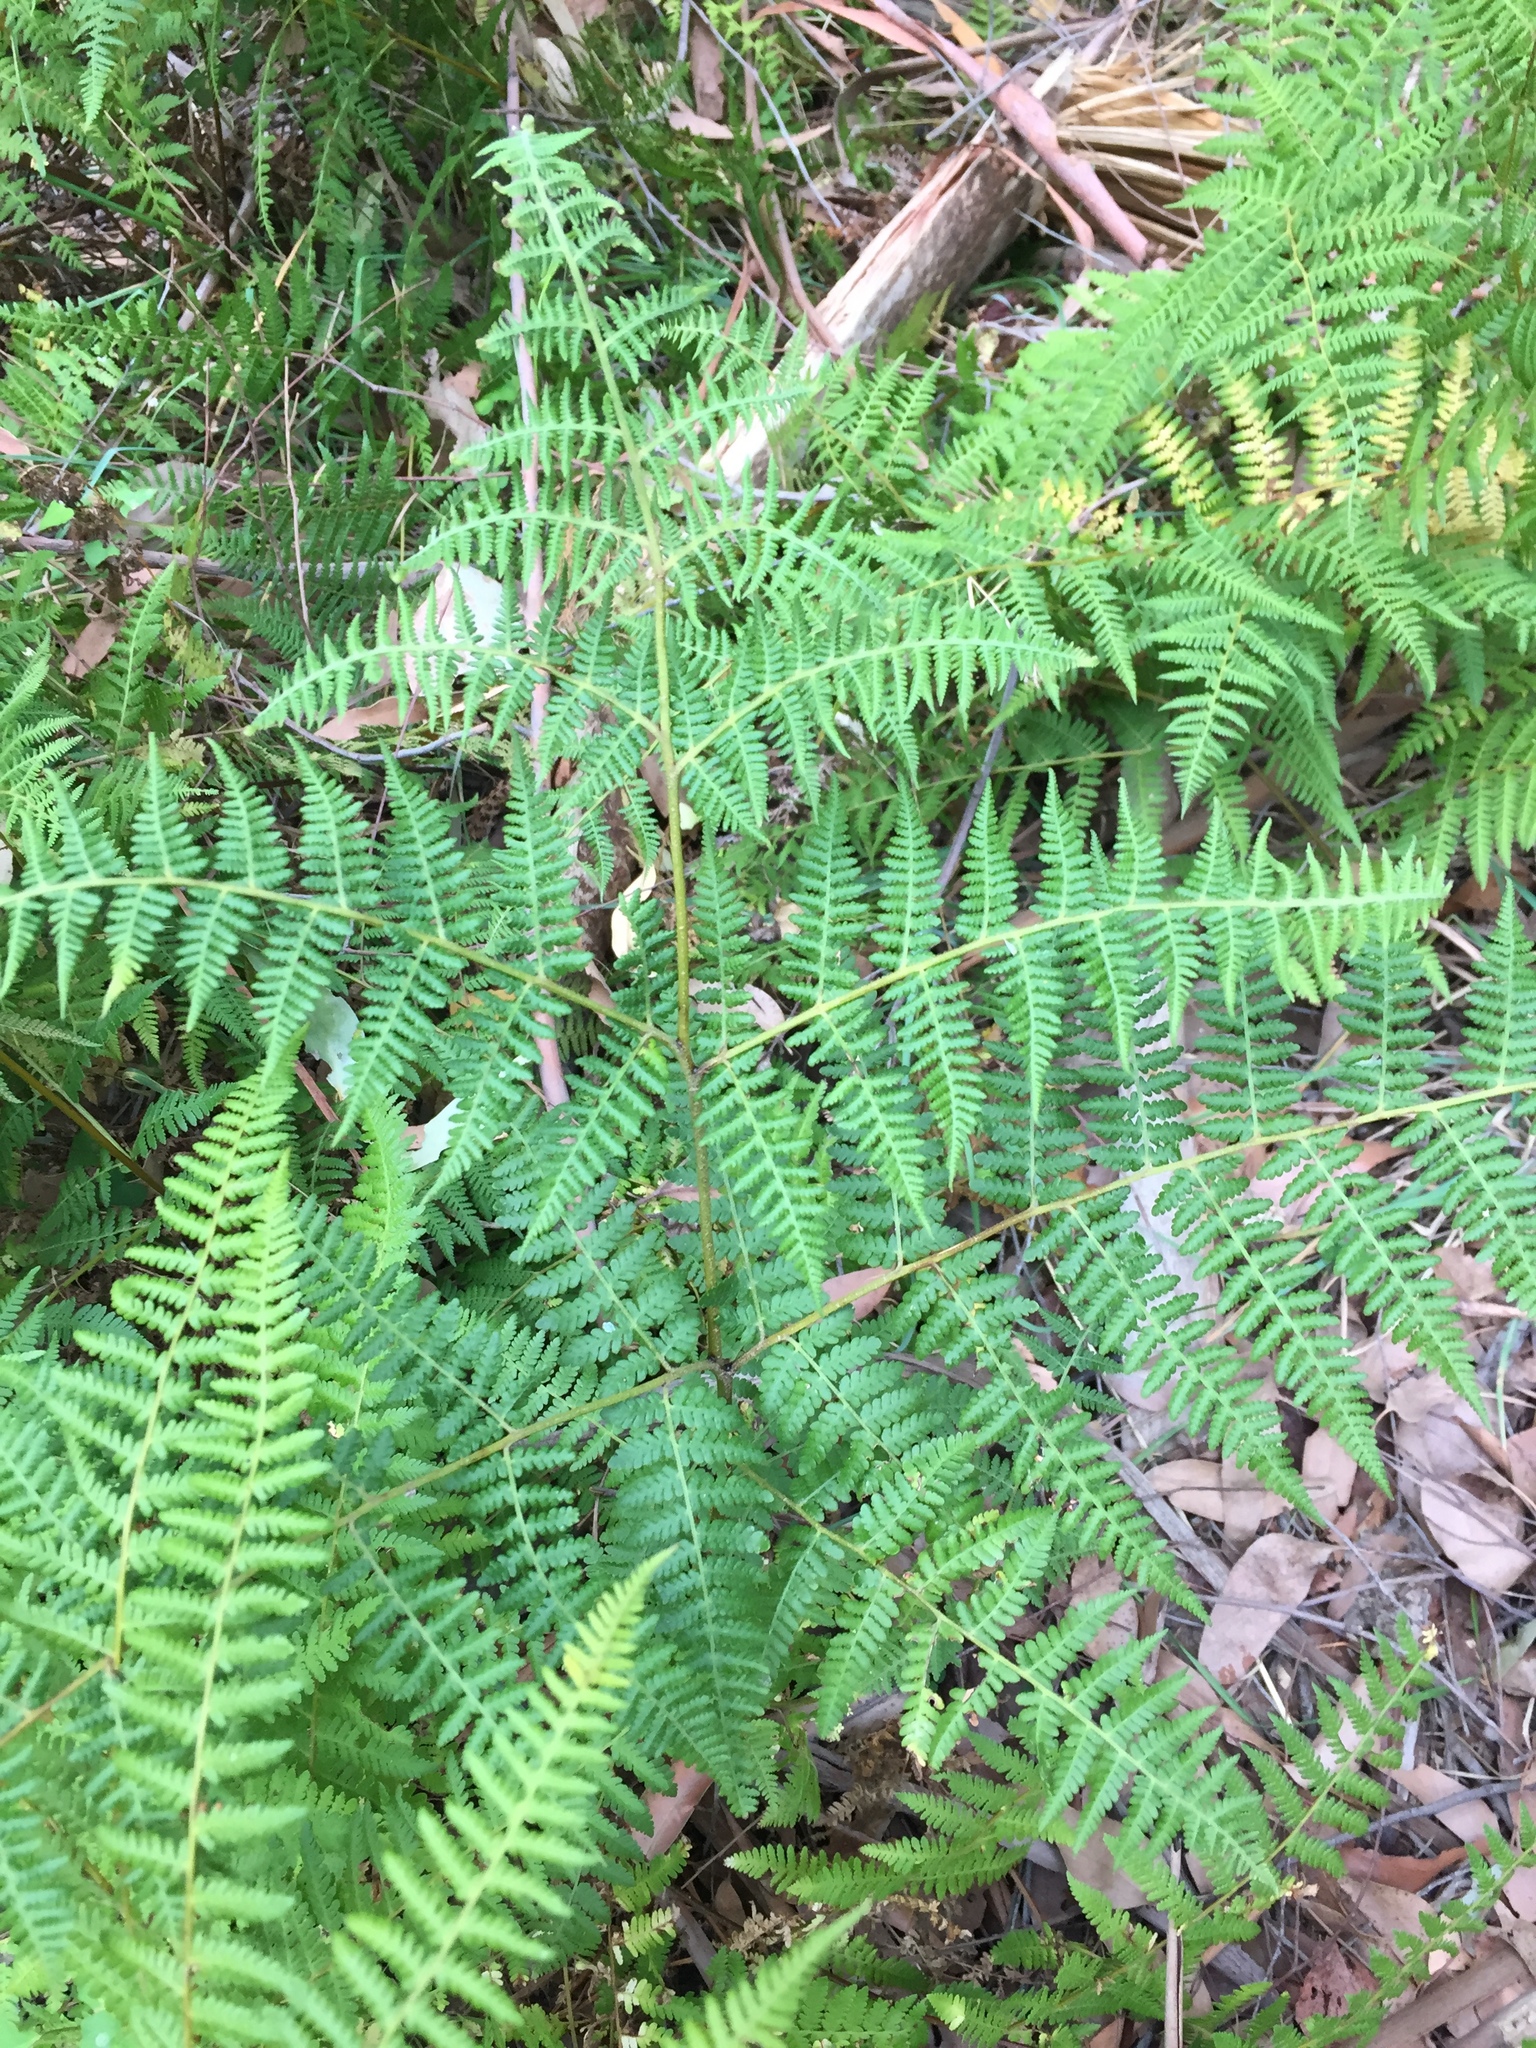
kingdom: Plantae
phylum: Tracheophyta
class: Polypodiopsida
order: Polypodiales
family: Dennstaedtiaceae
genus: Hypolepis
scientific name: Hypolepis ambigua
